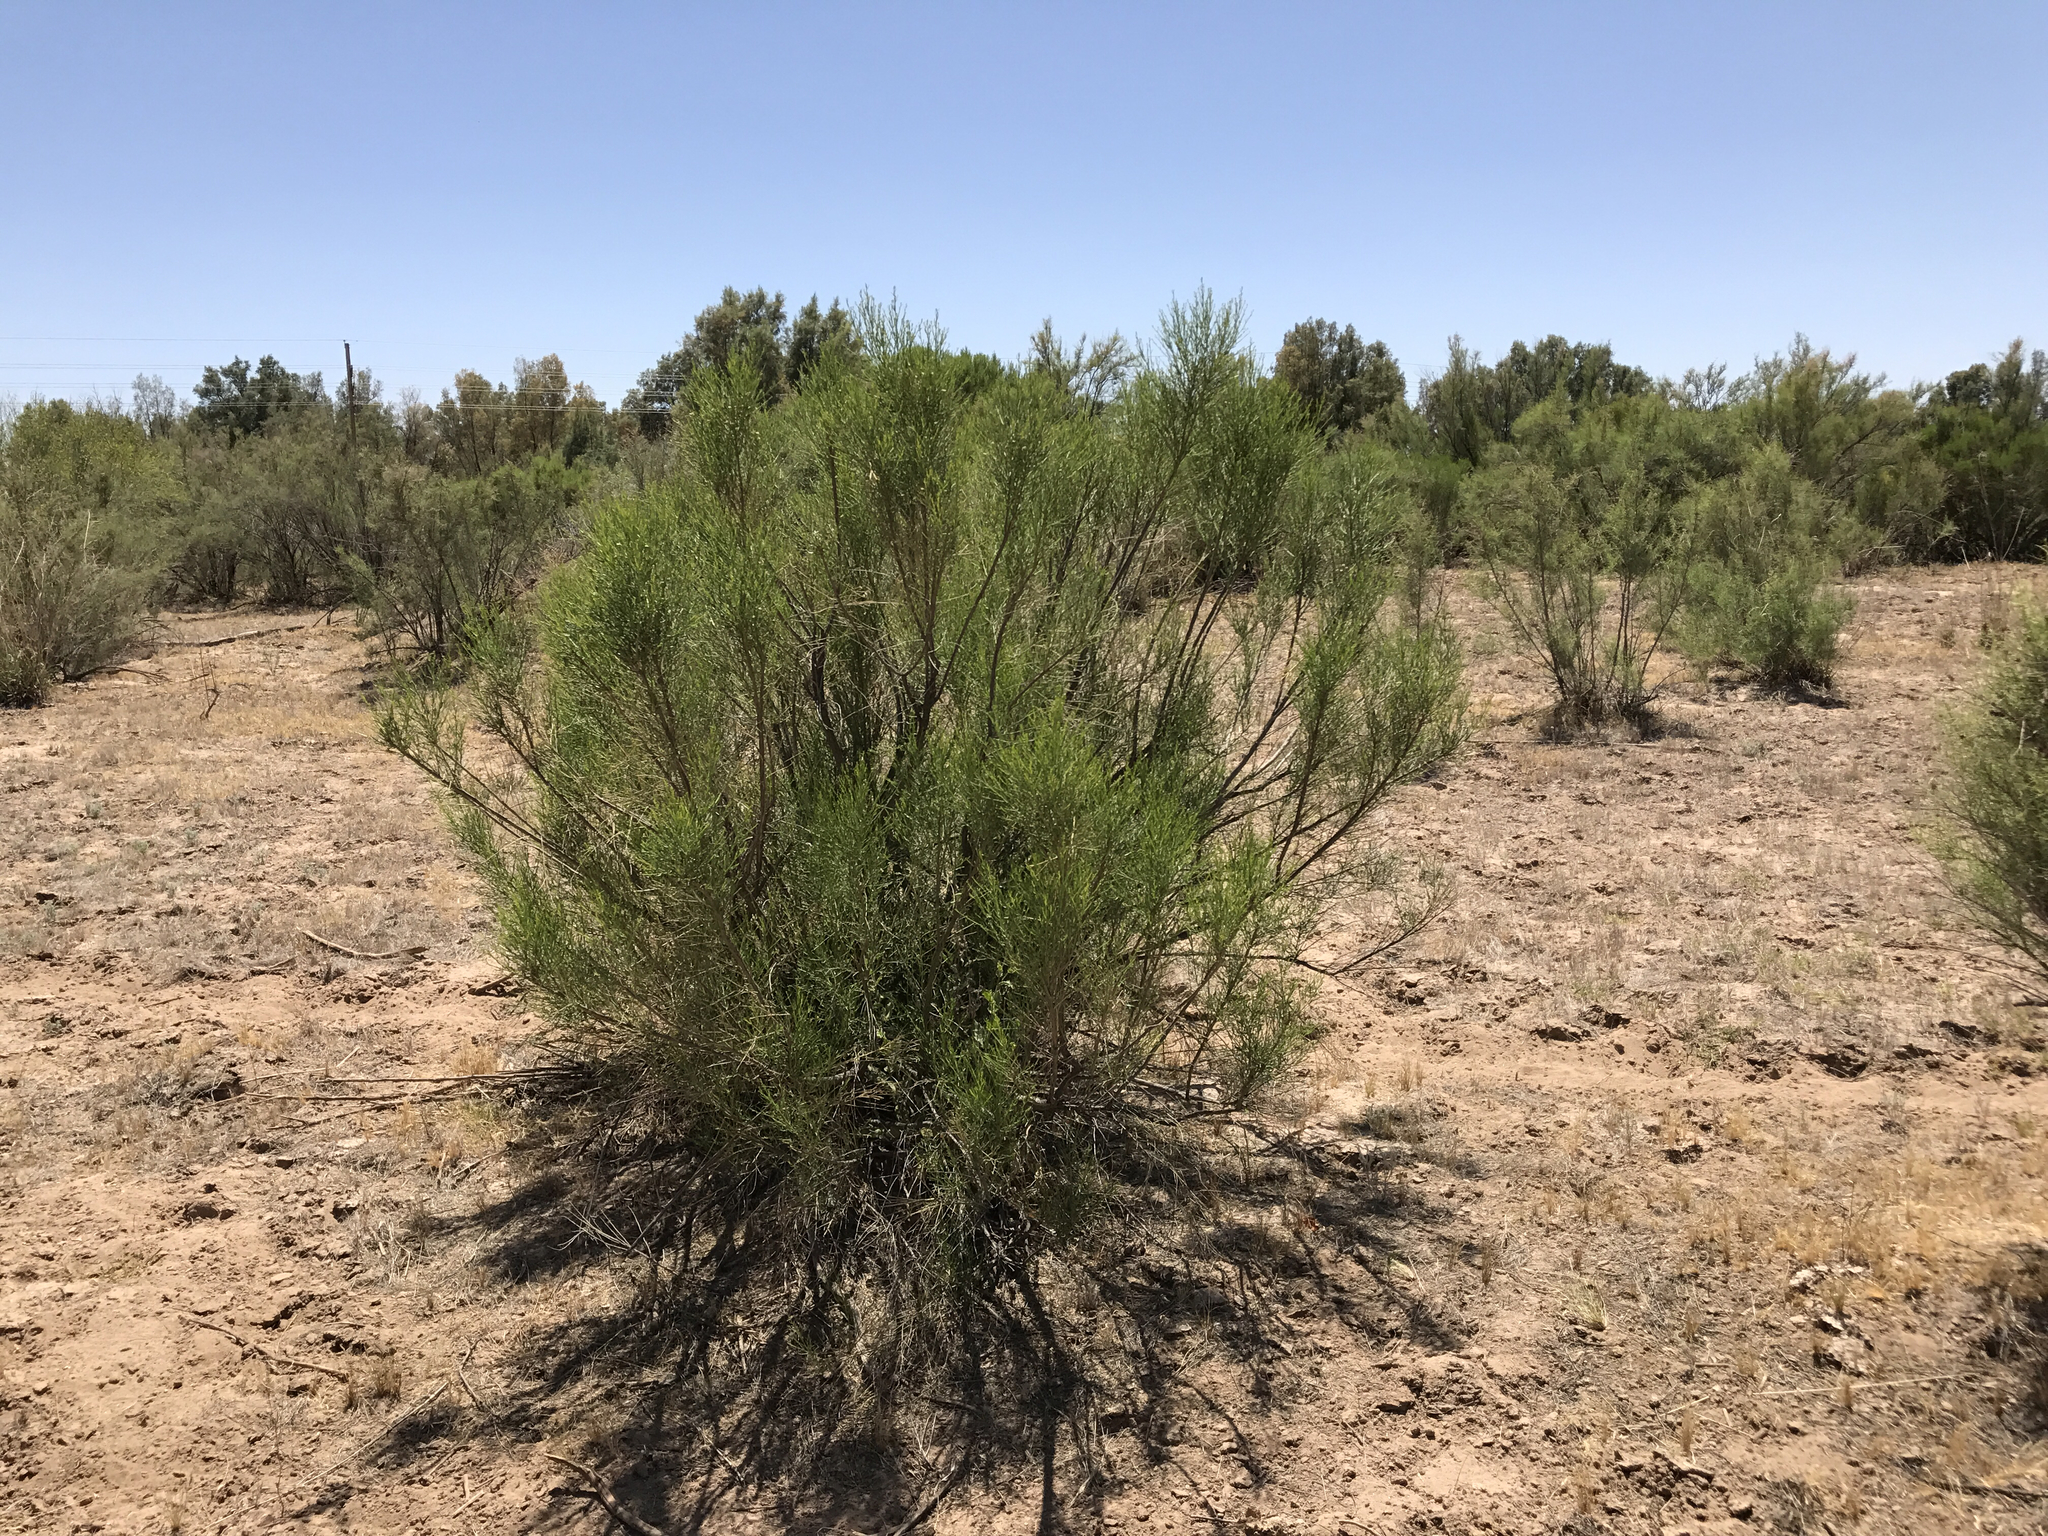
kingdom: Plantae
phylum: Tracheophyta
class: Magnoliopsida
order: Asterales
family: Asteraceae
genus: Baccharis
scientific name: Baccharis sarothroides
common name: Desert-broom
